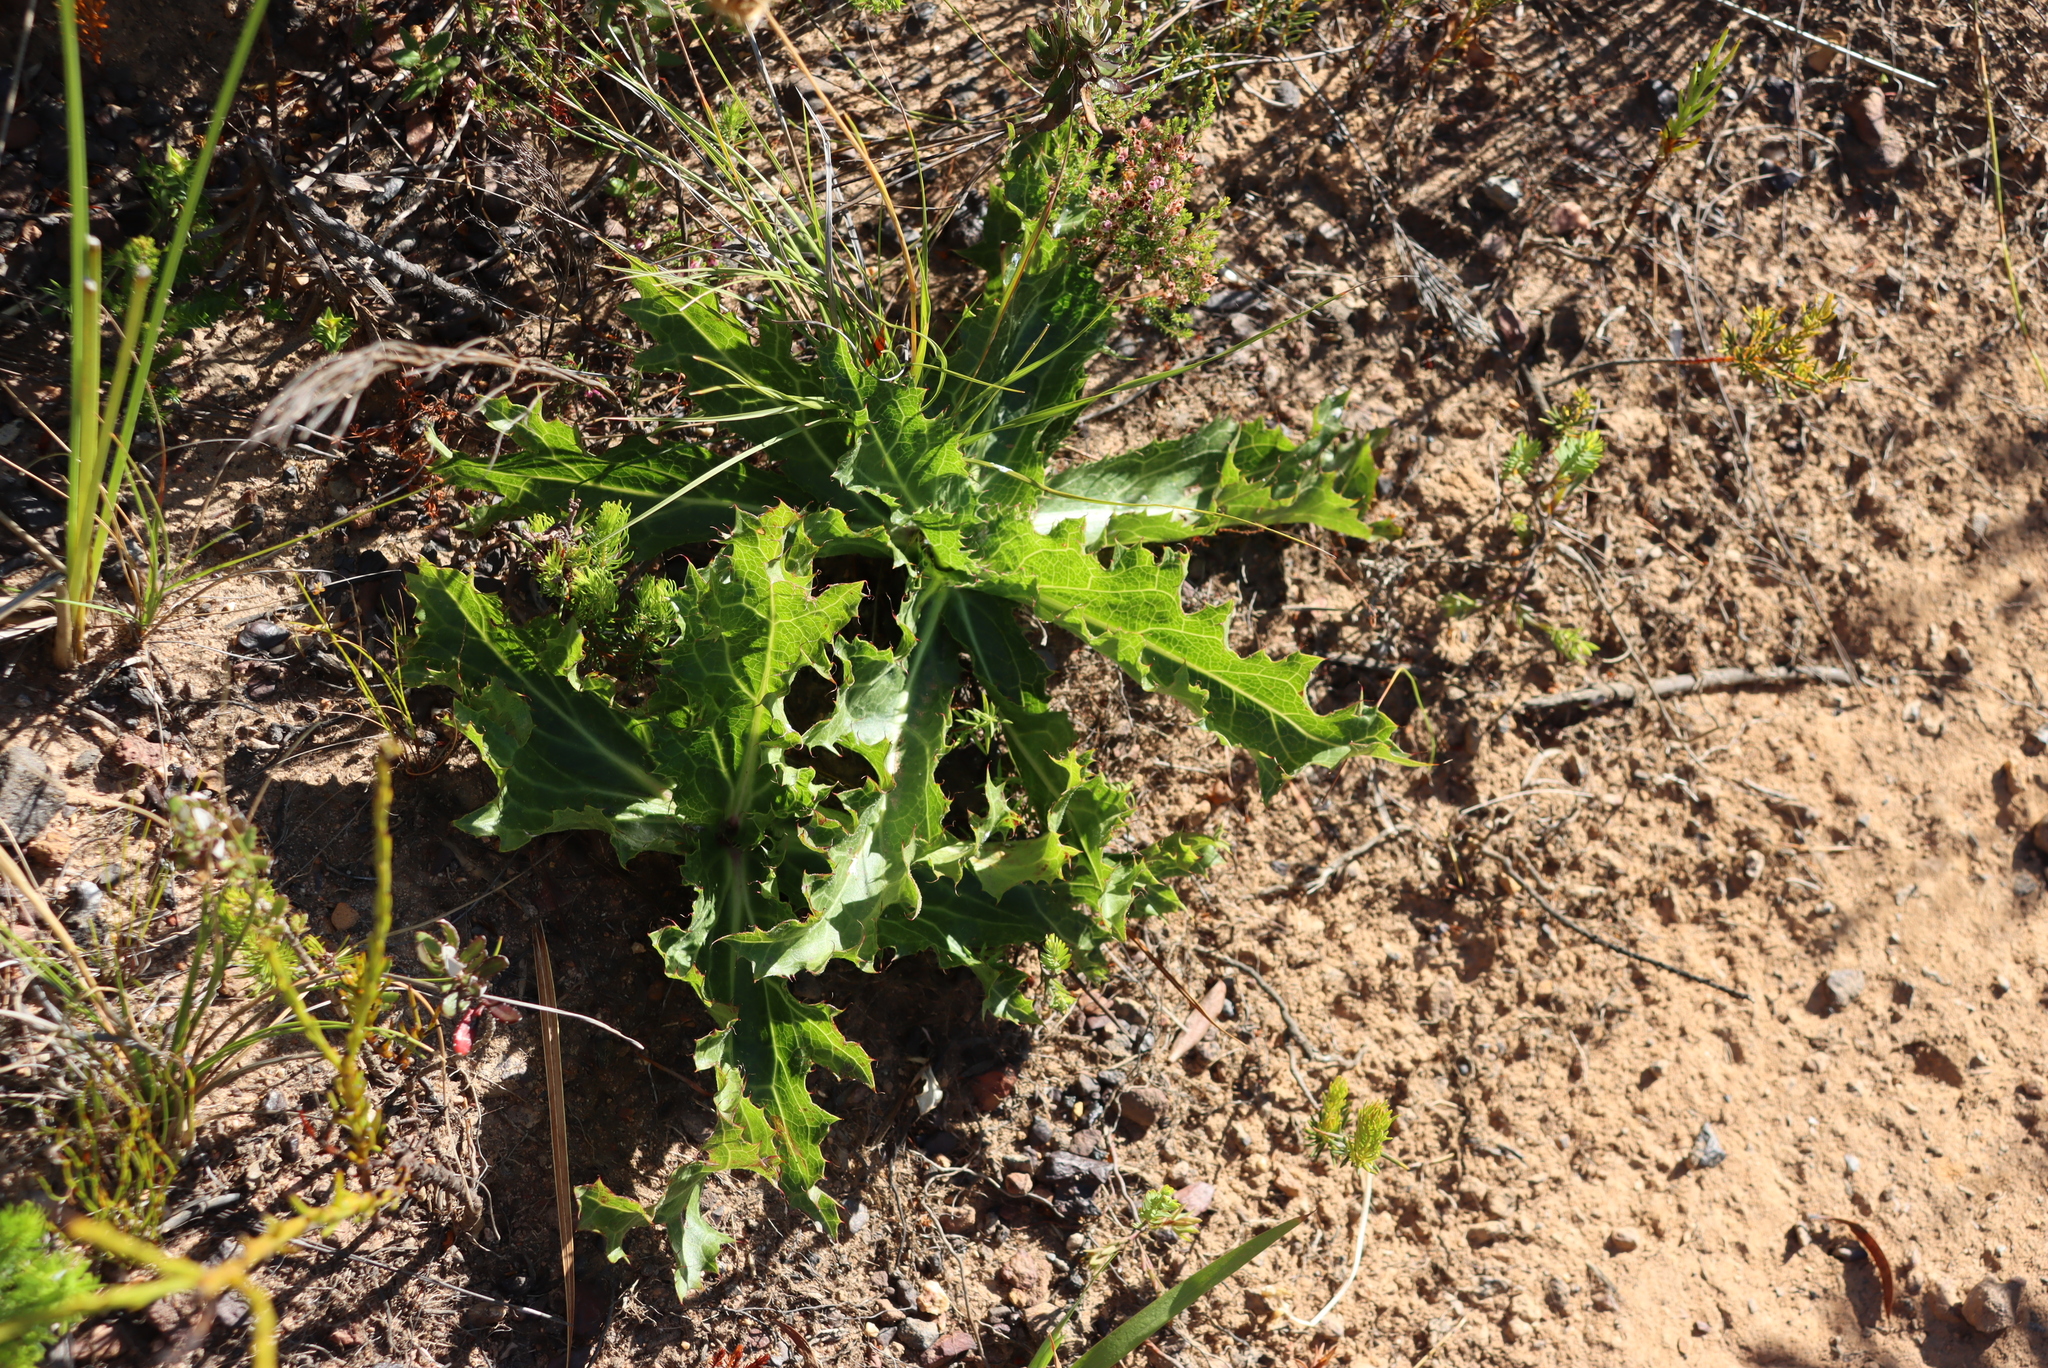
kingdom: Plantae
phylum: Tracheophyta
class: Magnoliopsida
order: Apiales
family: Apiaceae
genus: Lichtensteinia
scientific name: Lichtensteinia lacera
